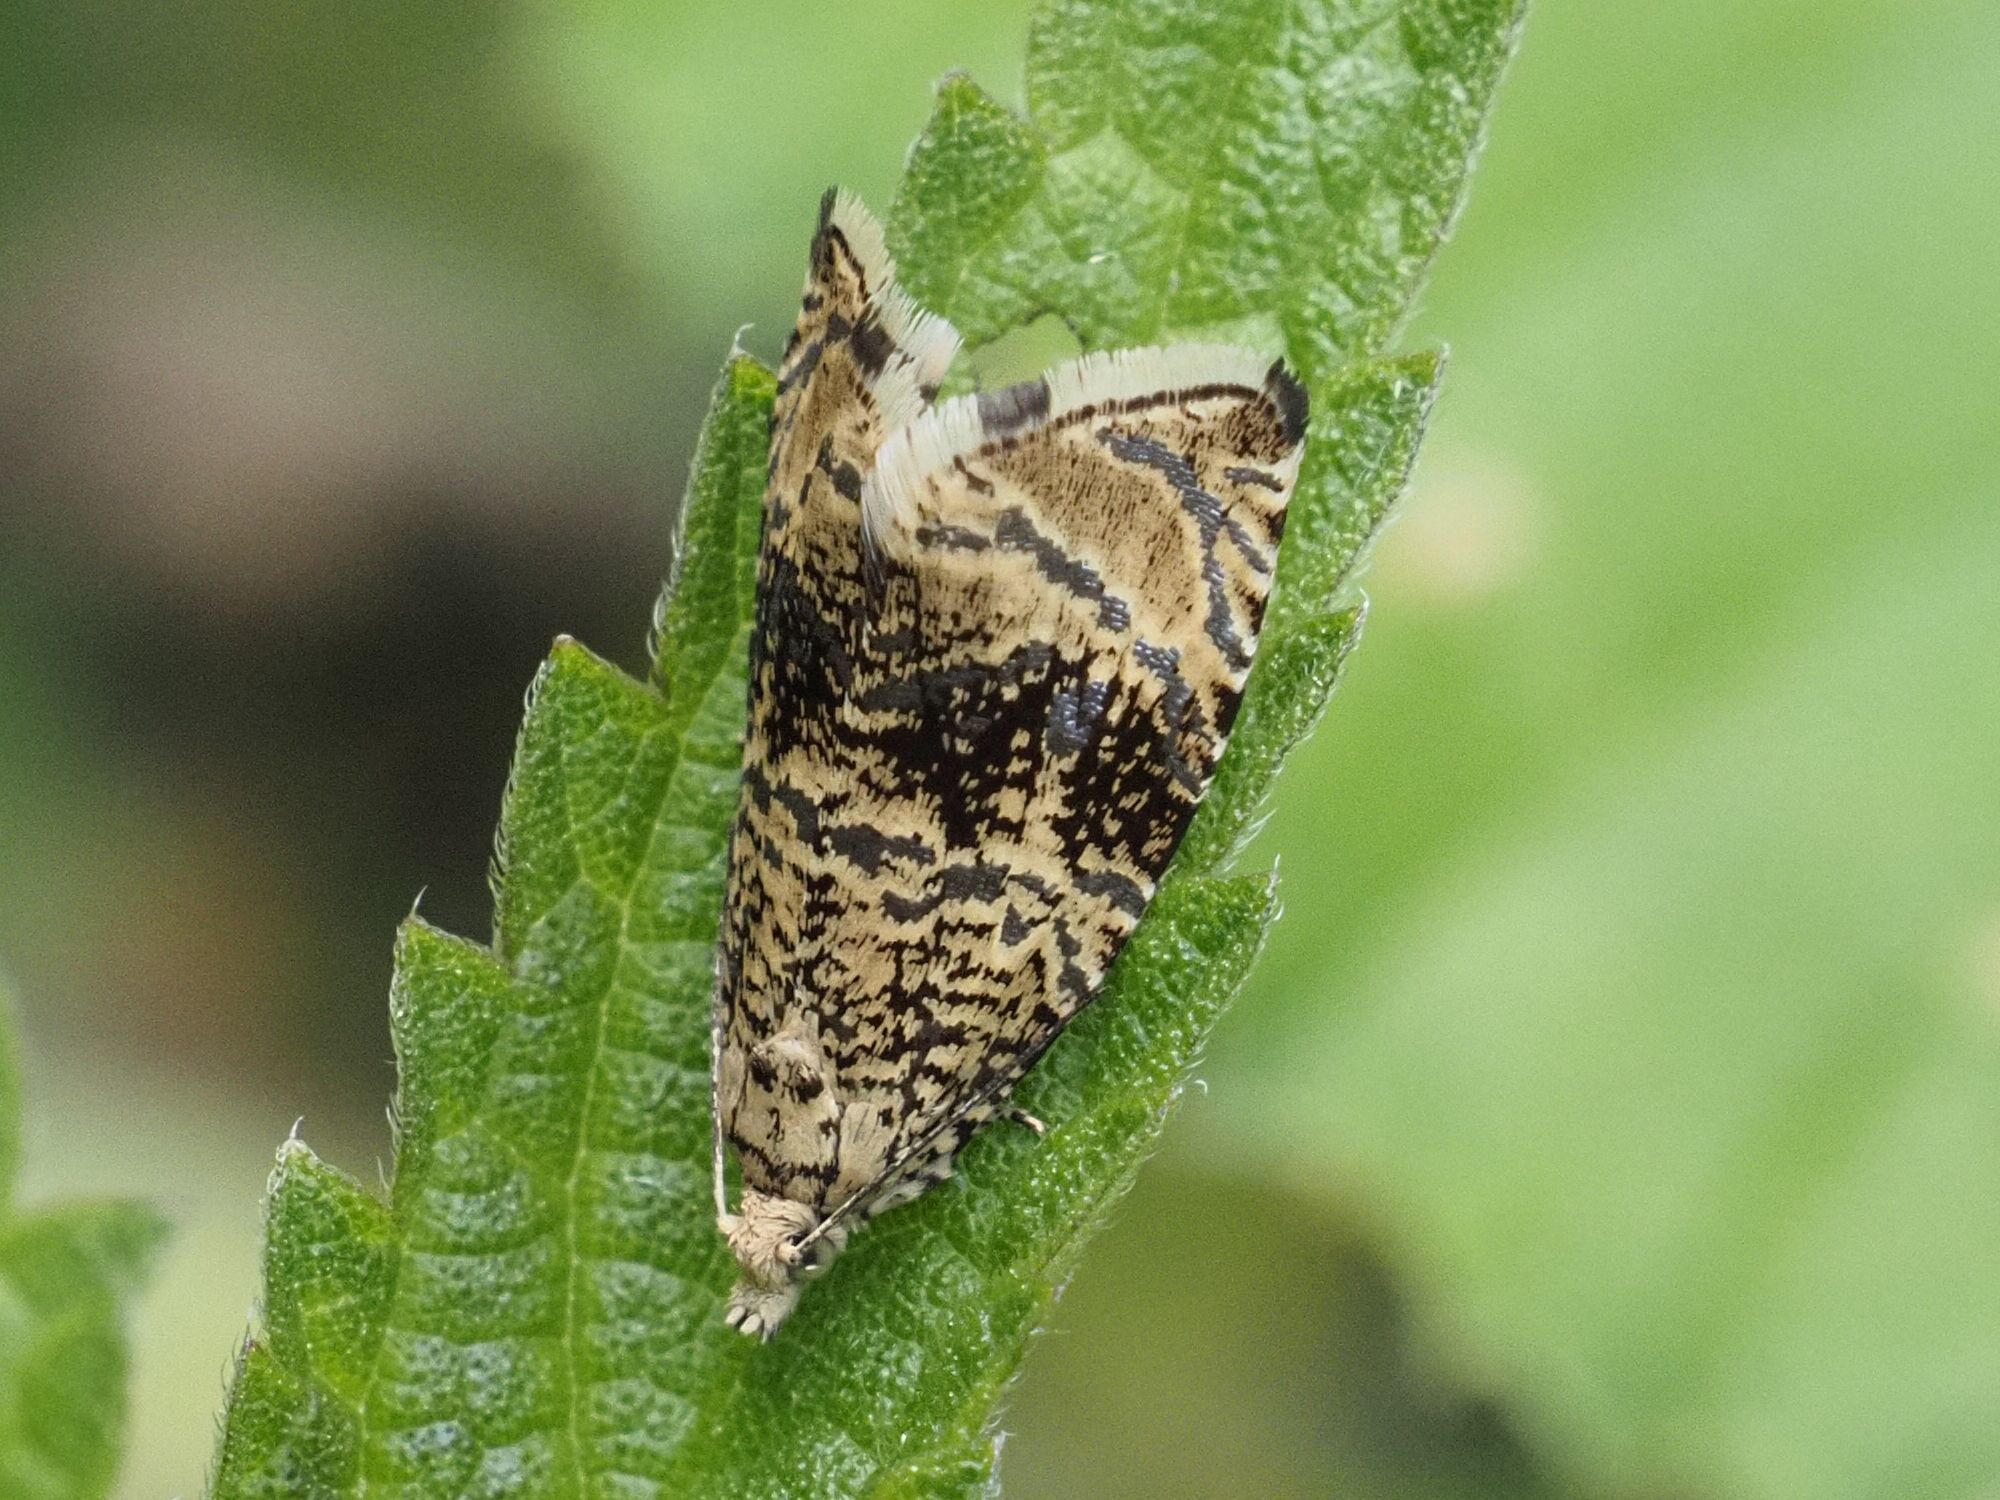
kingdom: Animalia
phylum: Arthropoda
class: Insecta
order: Lepidoptera
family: Tortricidae
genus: Syricoris
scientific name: Syricoris lacunana
